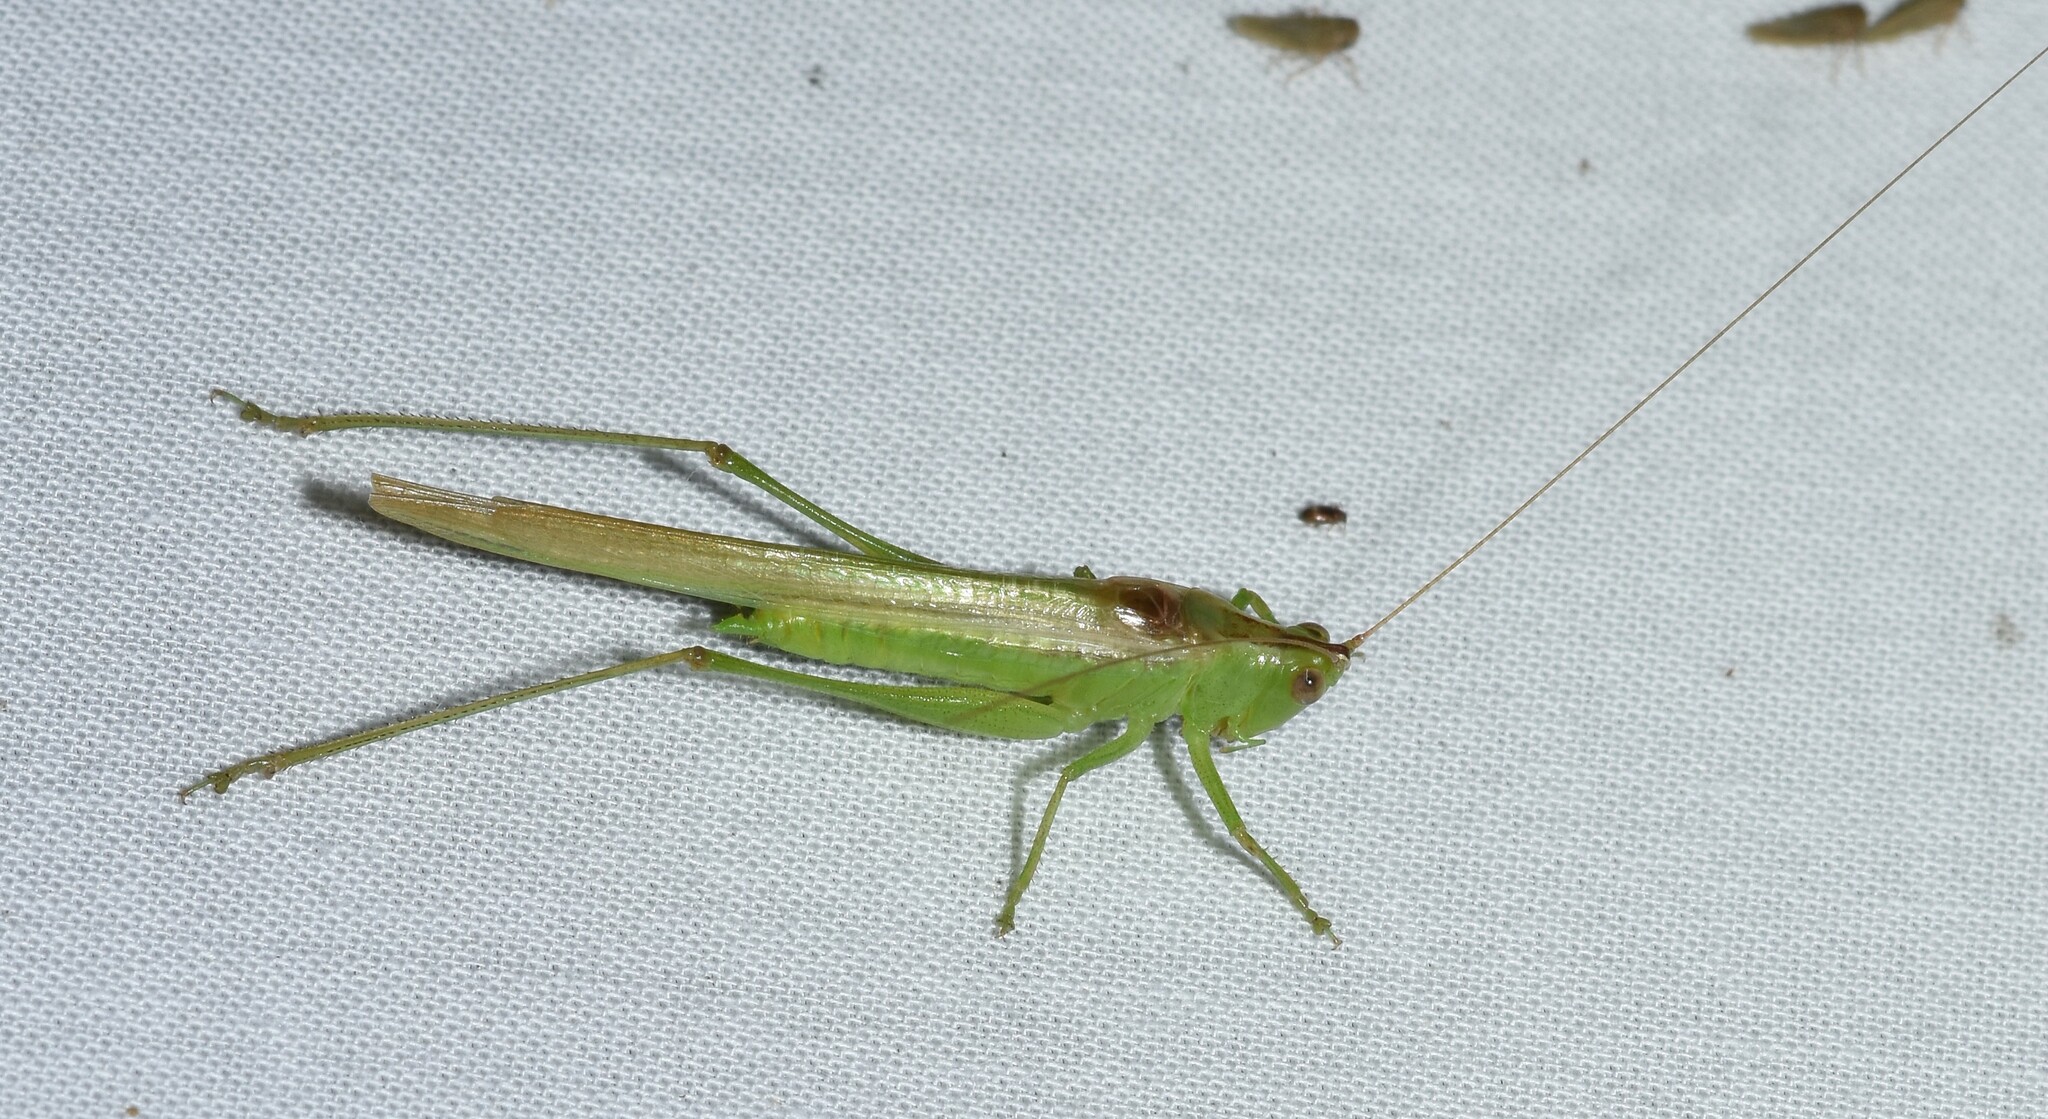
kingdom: Animalia
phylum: Arthropoda
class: Insecta
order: Orthoptera
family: Tettigoniidae
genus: Conocephalus
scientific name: Conocephalus fasciatus
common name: Slender meadow katydid
